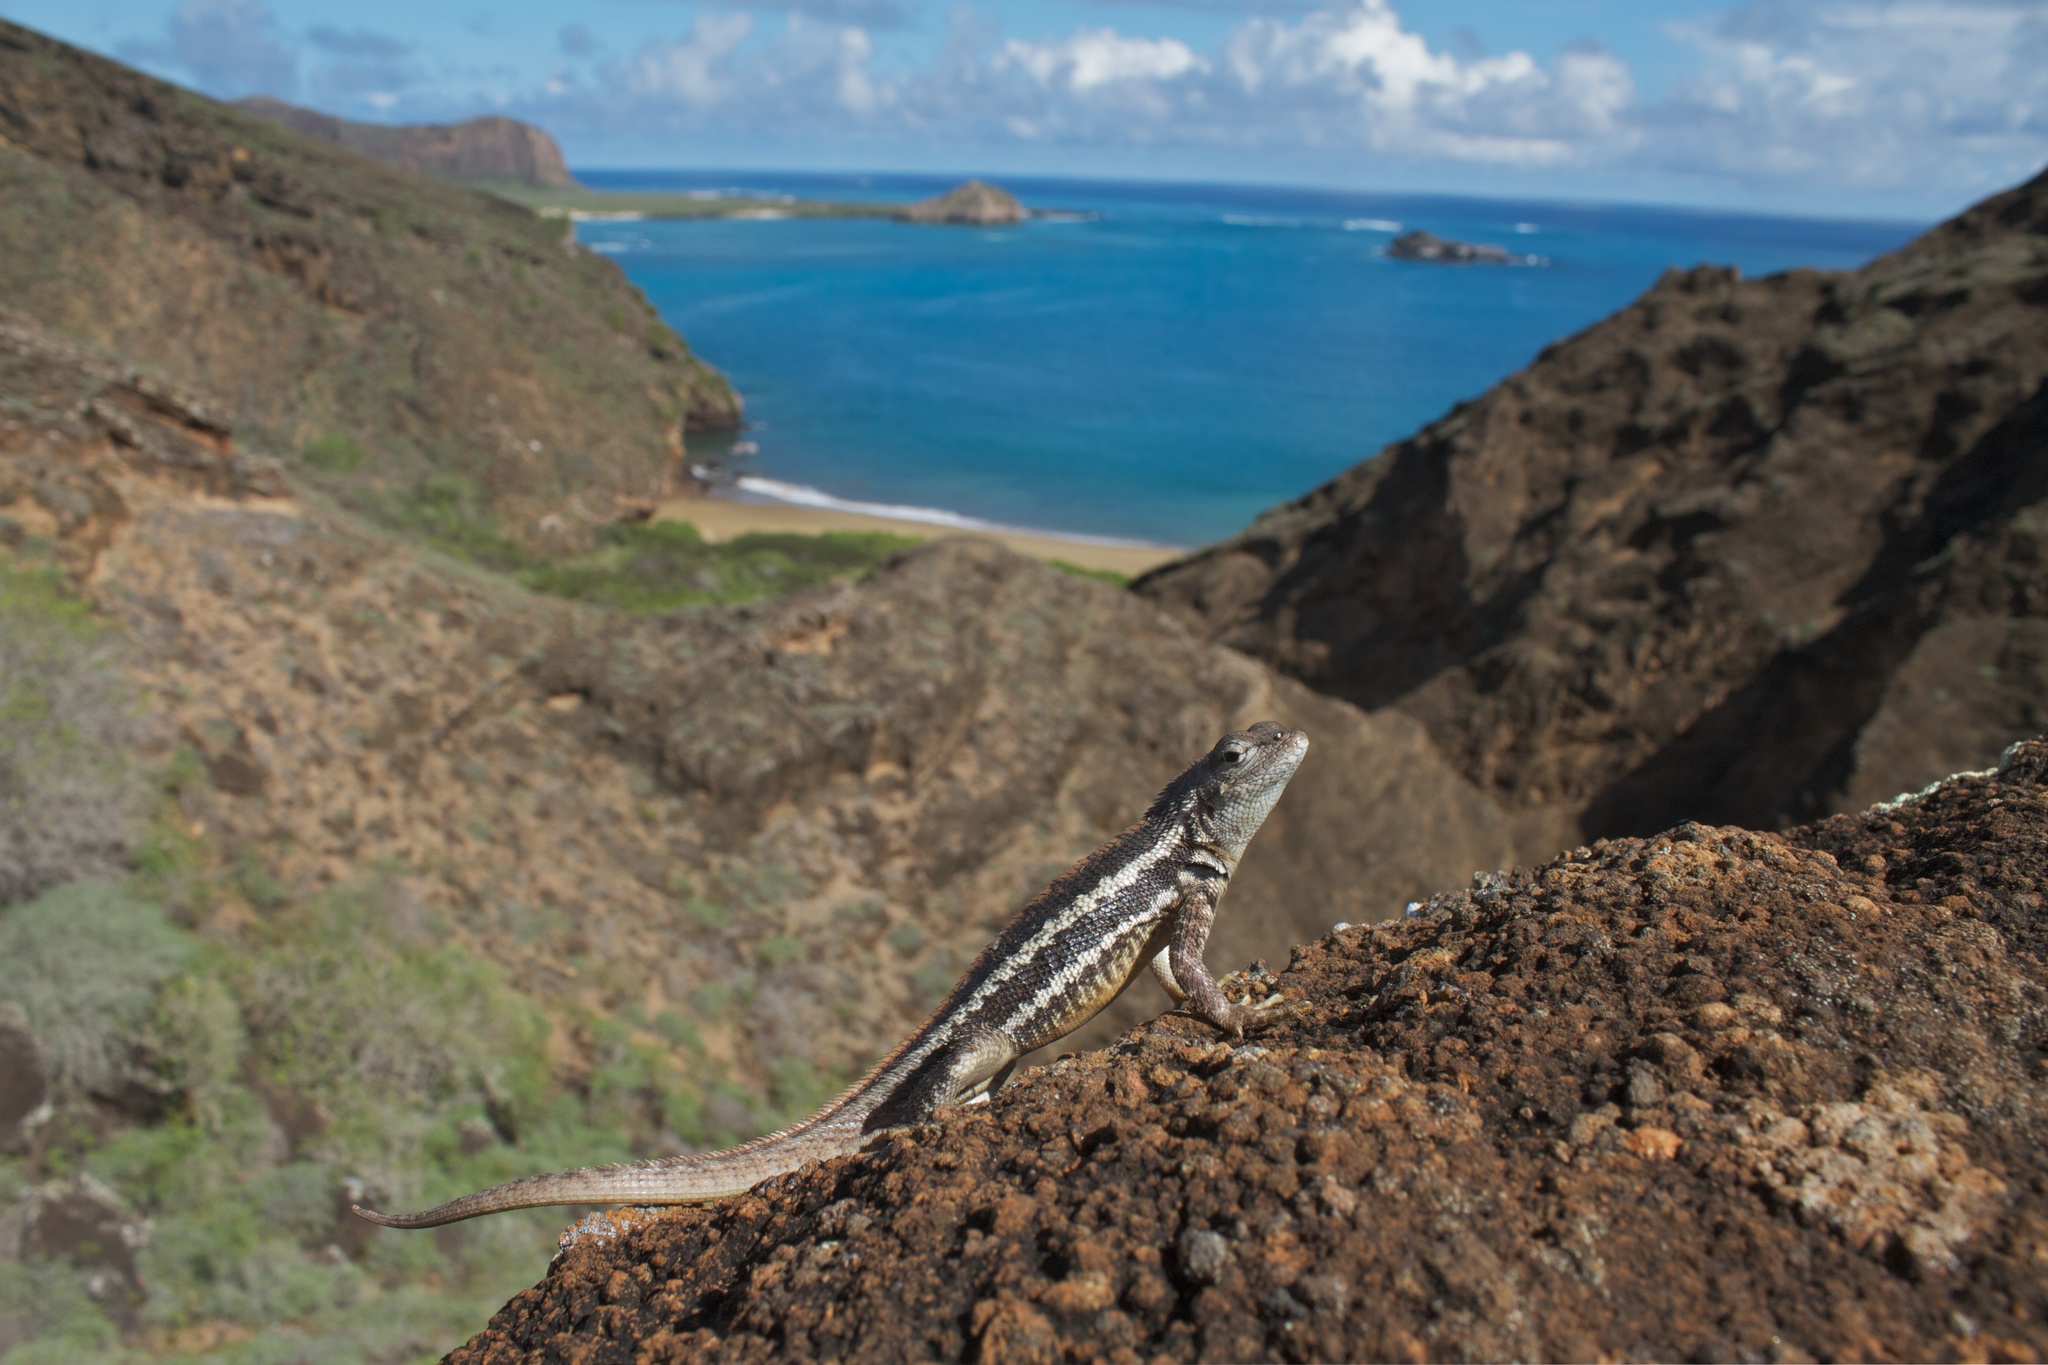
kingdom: Animalia
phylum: Chordata
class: Squamata
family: Tropiduridae
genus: Microlophus
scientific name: Microlophus bivittatus
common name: San cristobal lava lizard
